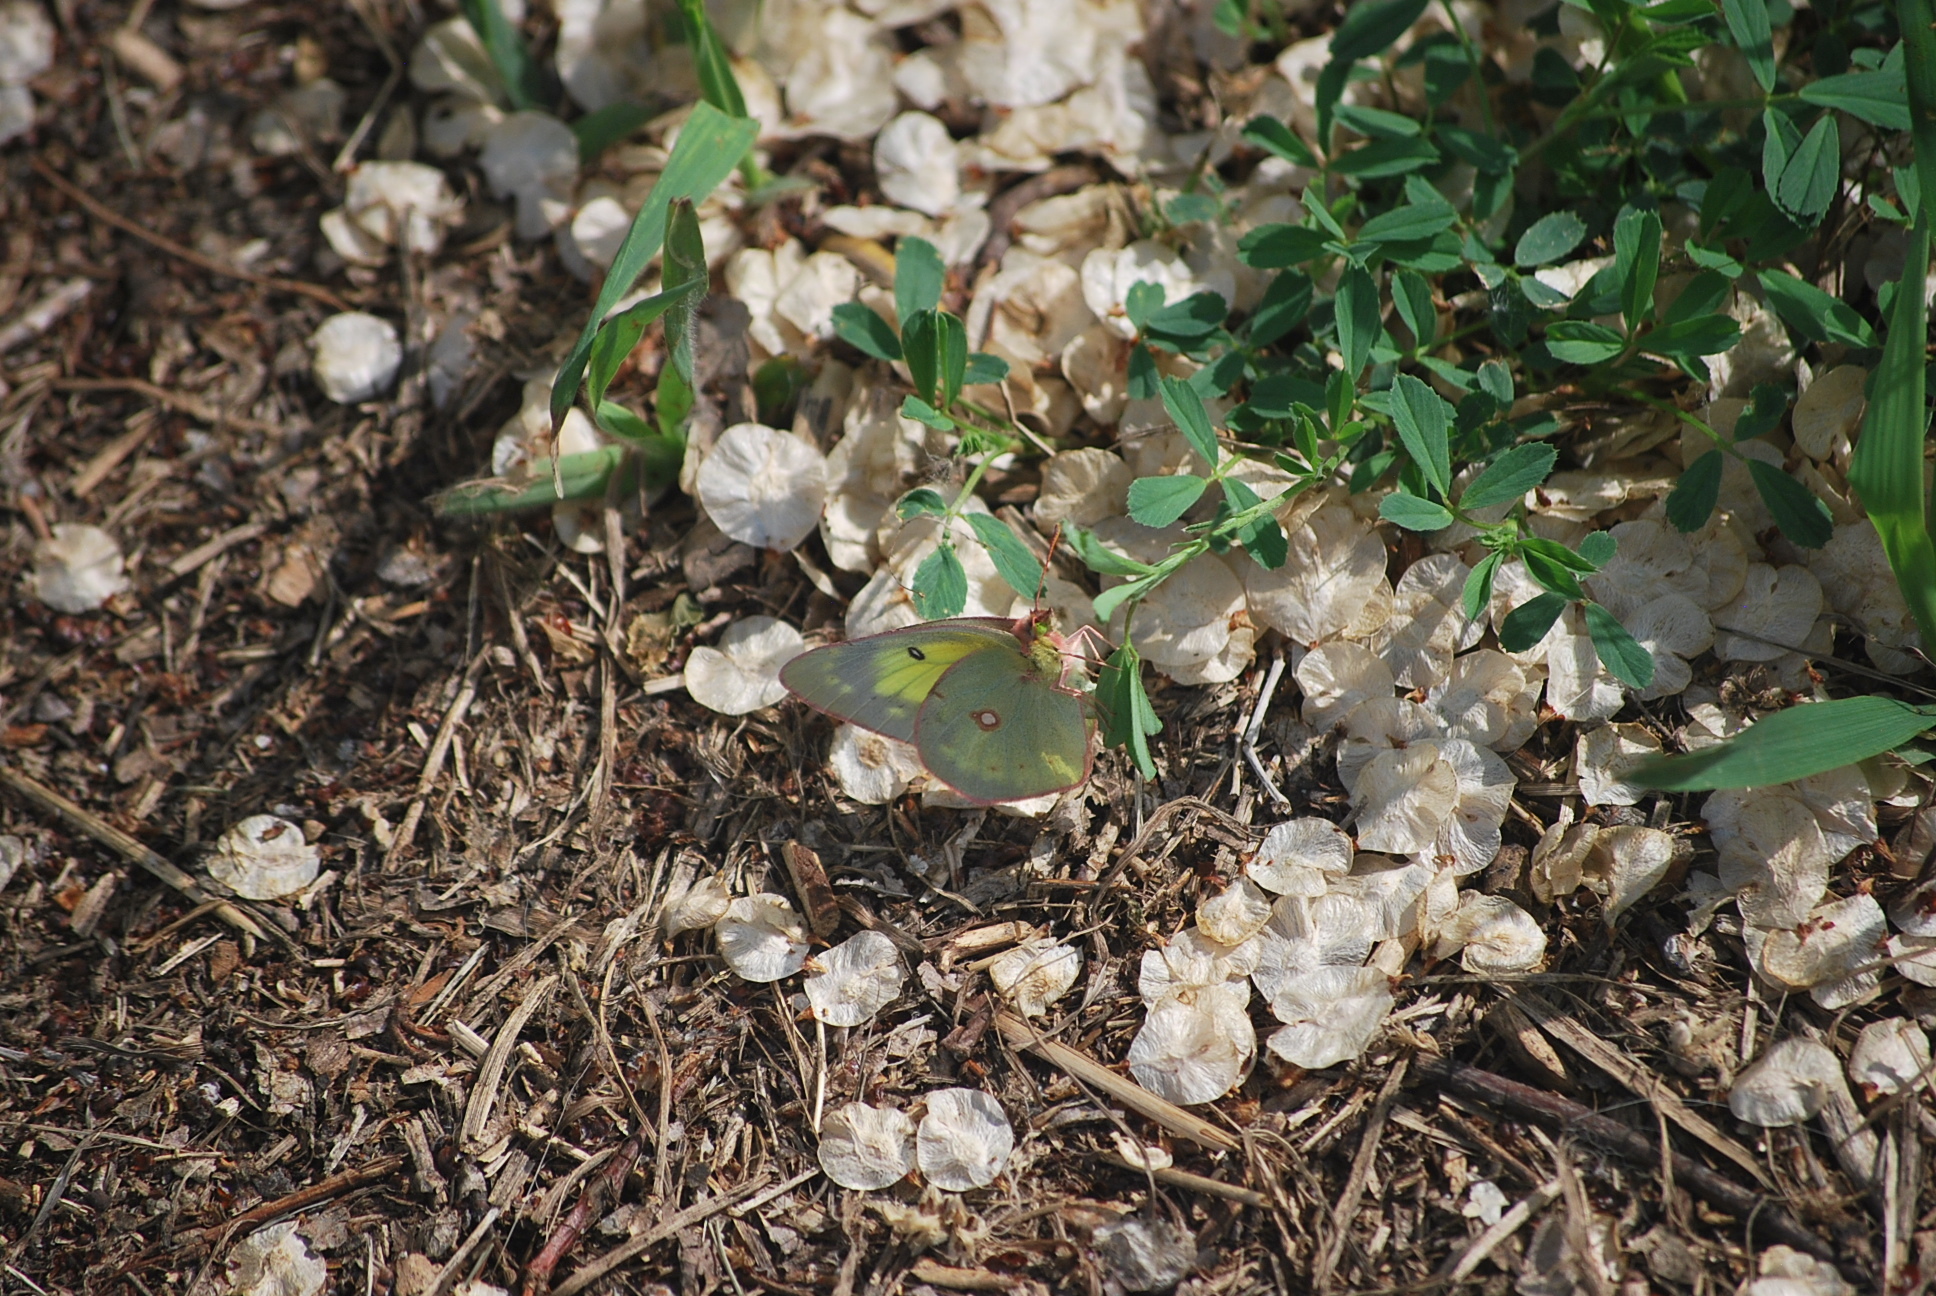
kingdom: Animalia
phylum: Arthropoda
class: Insecta
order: Lepidoptera
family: Pieridae
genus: Colias
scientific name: Colias philodice
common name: Clouded sulphur
